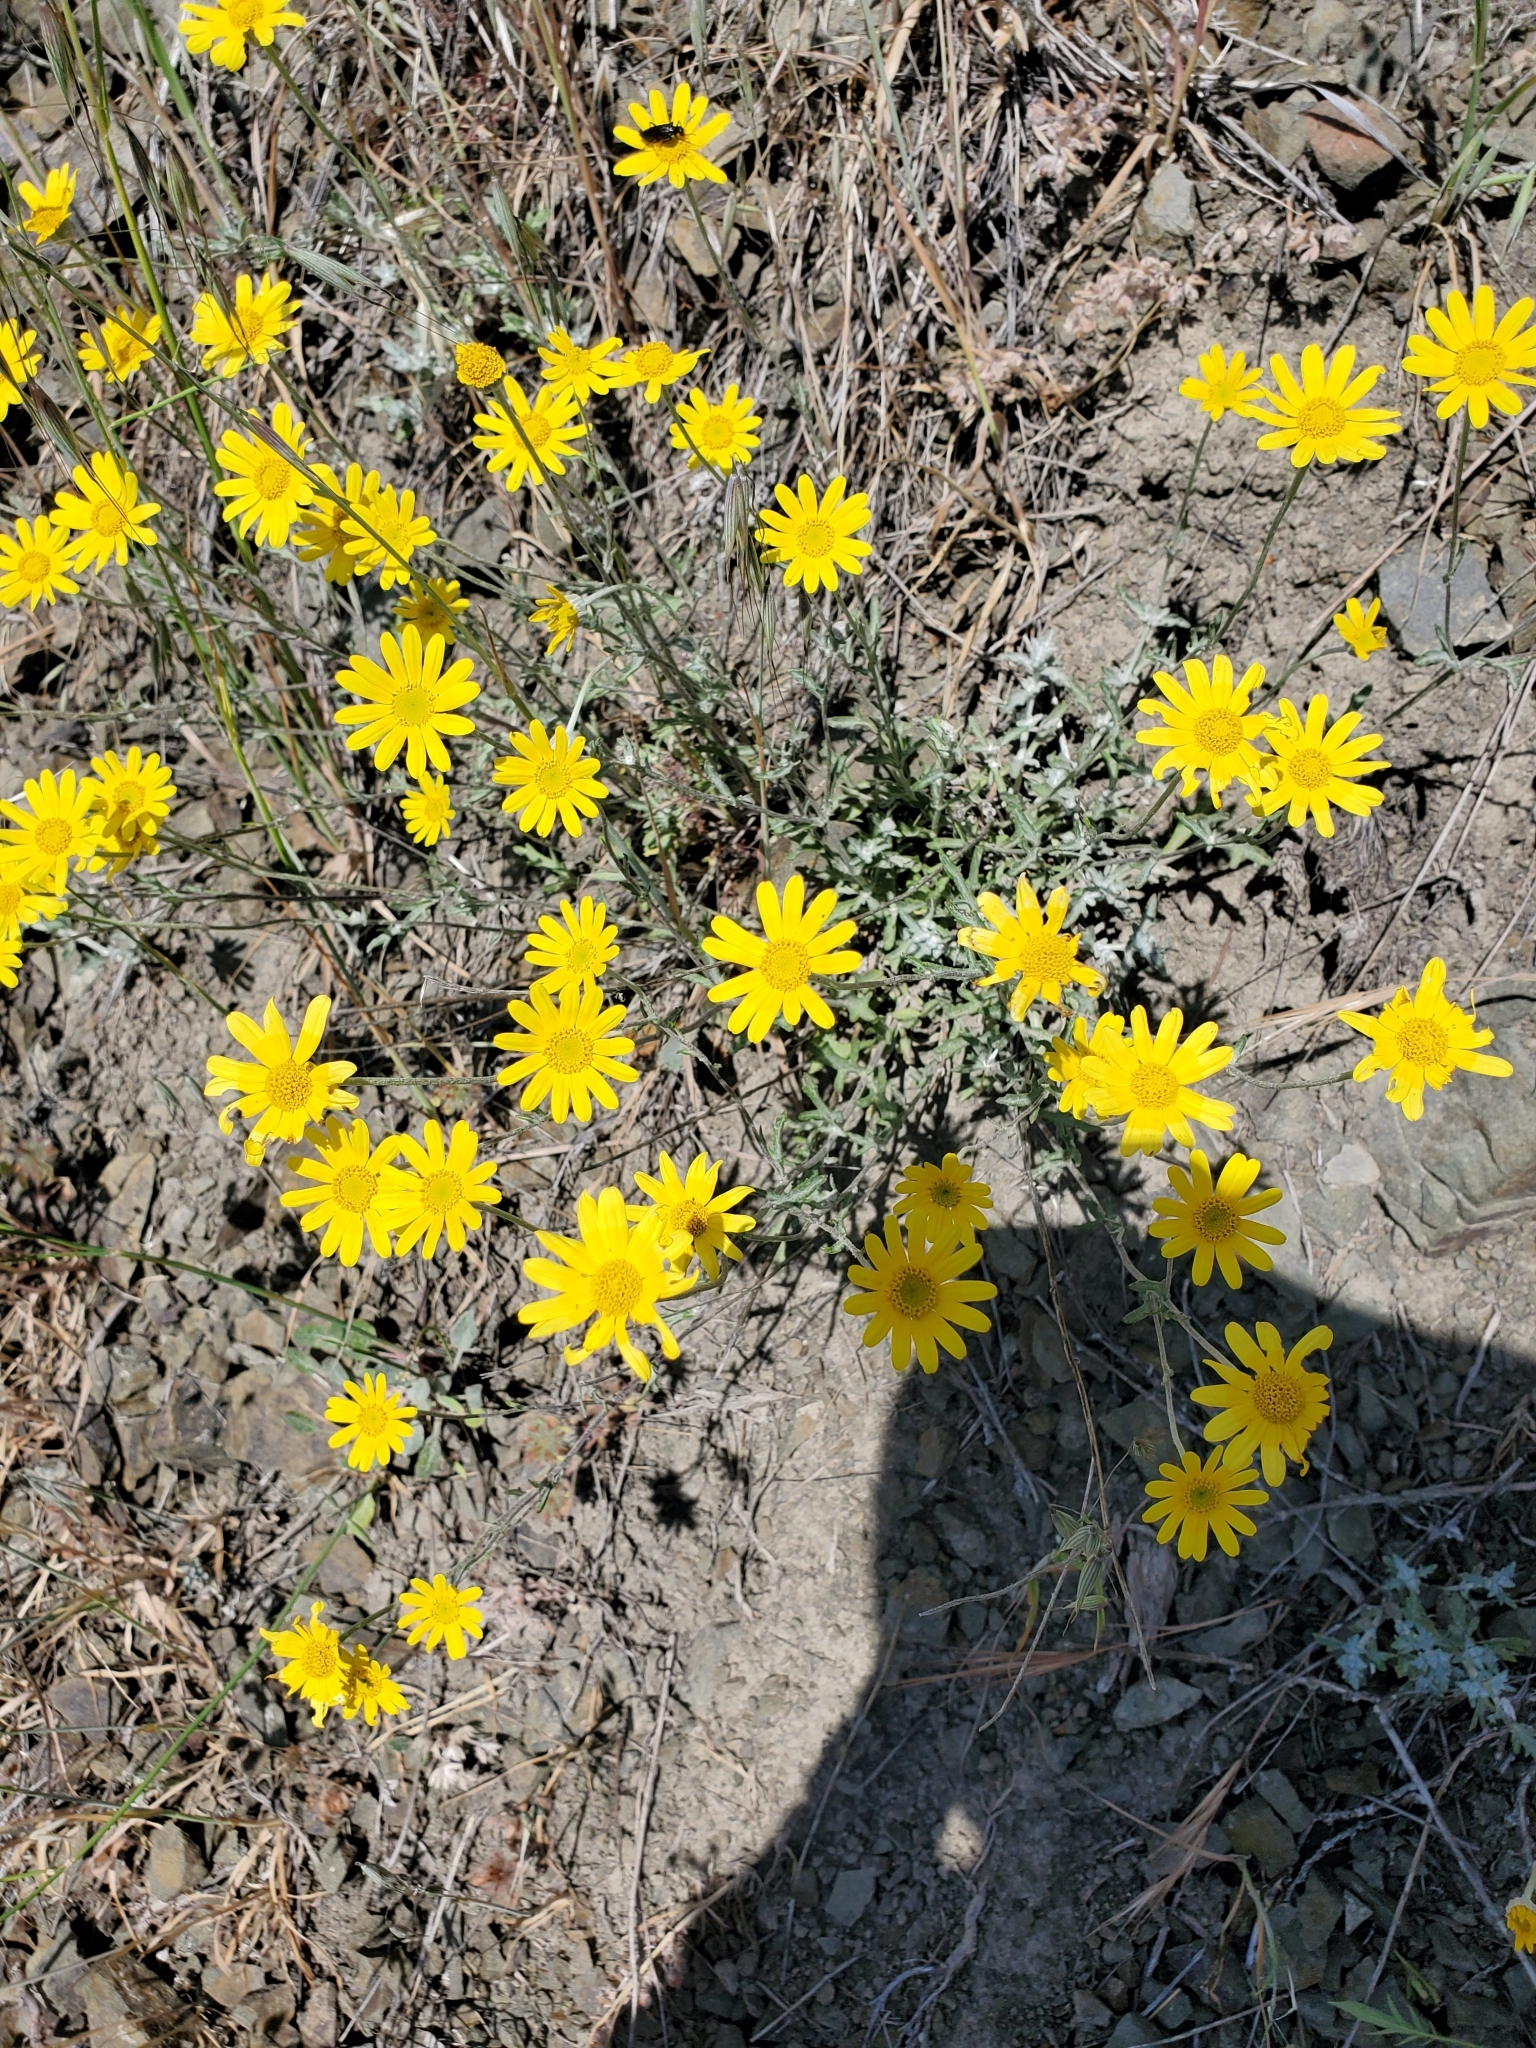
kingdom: Plantae
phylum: Tracheophyta
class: Magnoliopsida
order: Asterales
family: Asteraceae
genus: Eriophyllum
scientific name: Eriophyllum lanatum
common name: Common woolly-sunflower
